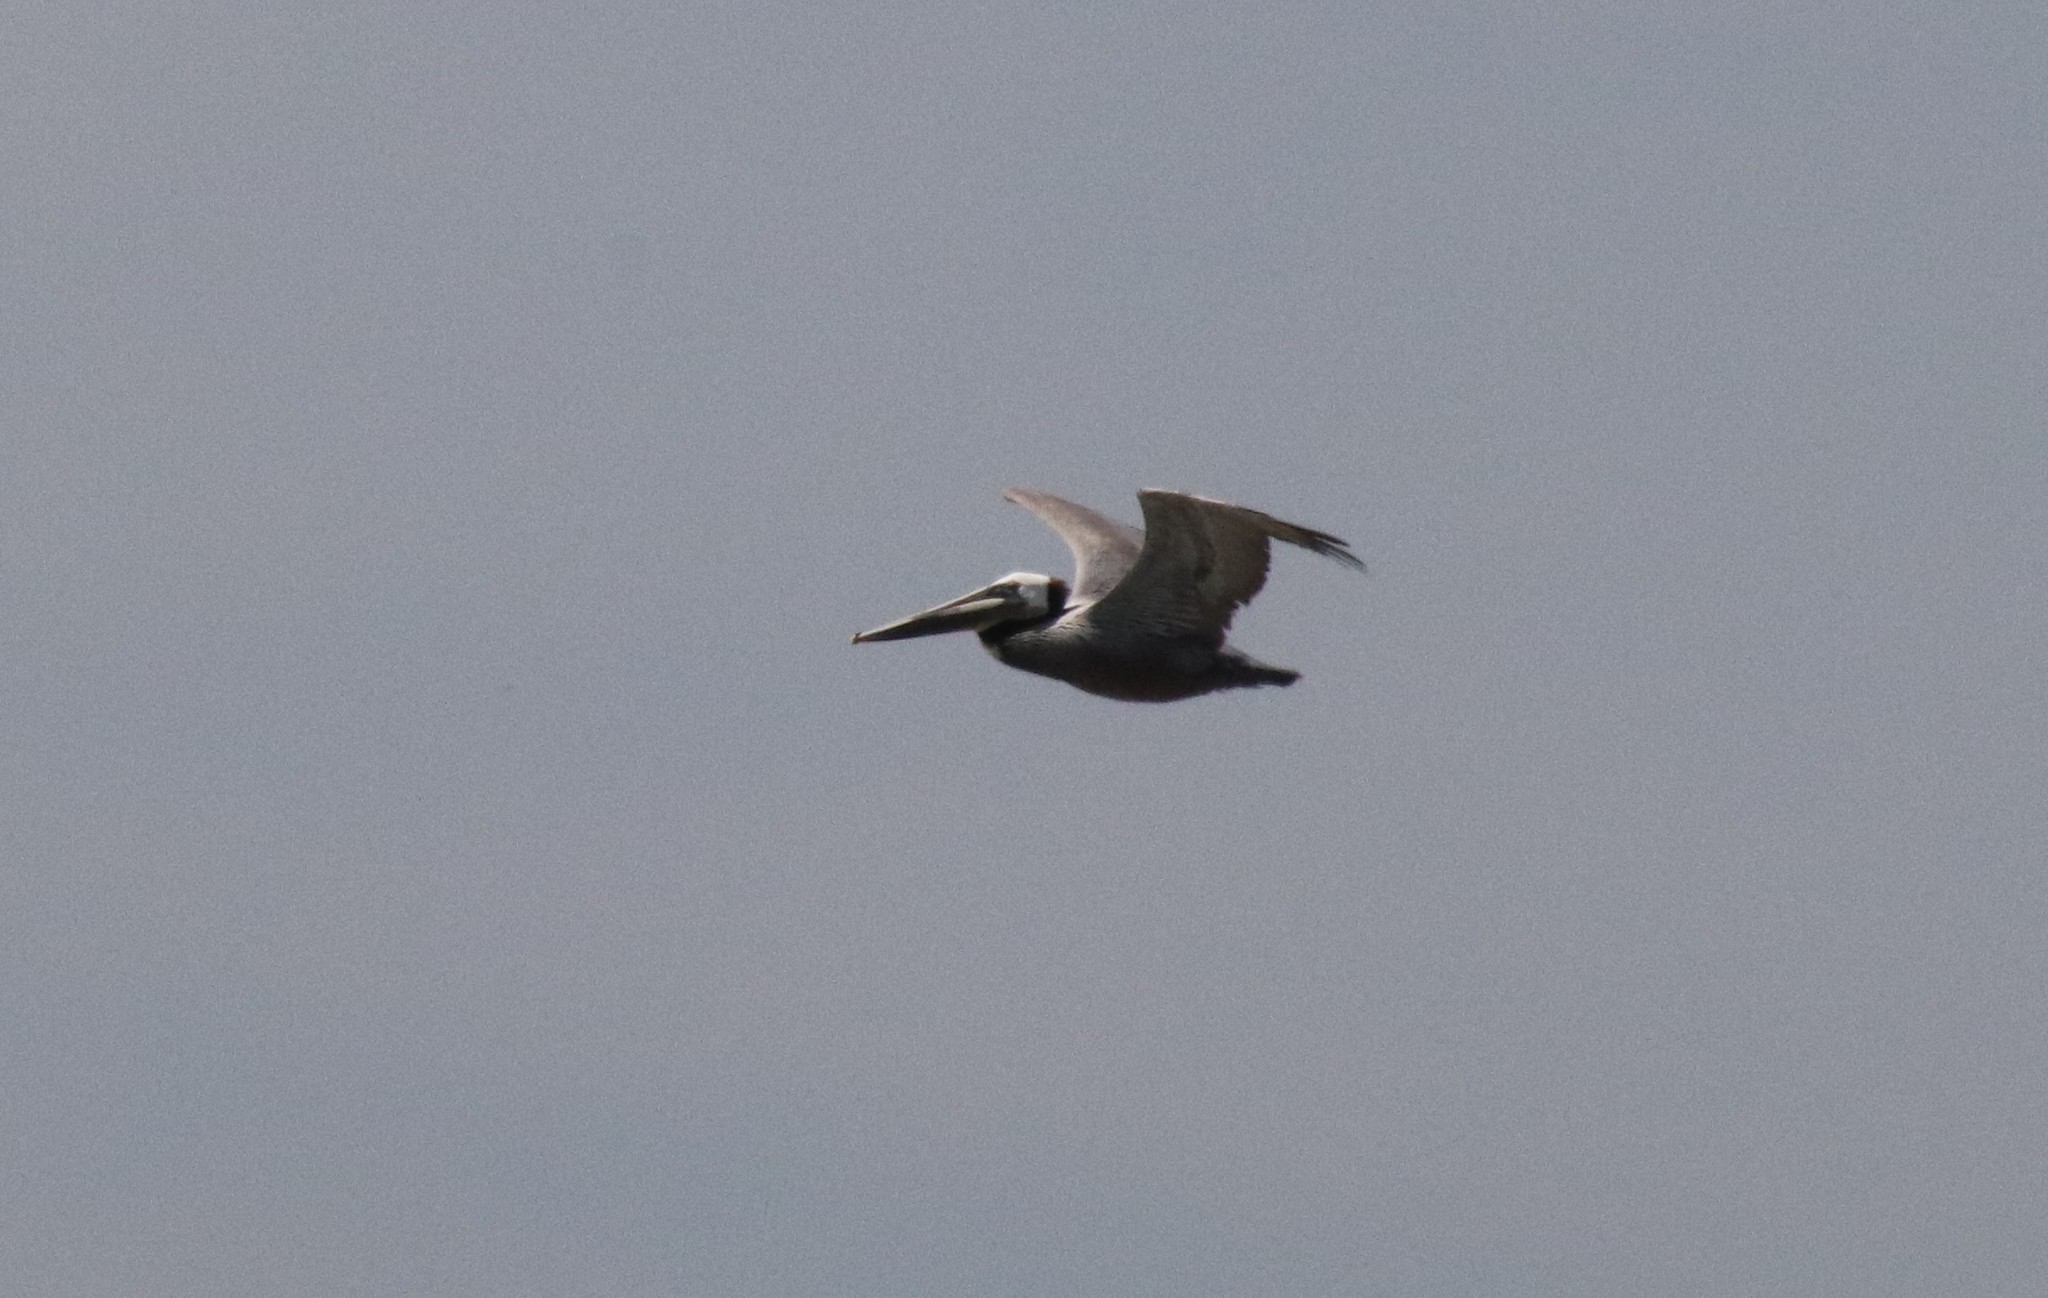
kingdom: Animalia
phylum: Chordata
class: Aves
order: Pelecaniformes
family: Pelecanidae
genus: Pelecanus
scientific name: Pelecanus occidentalis
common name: Brown pelican
